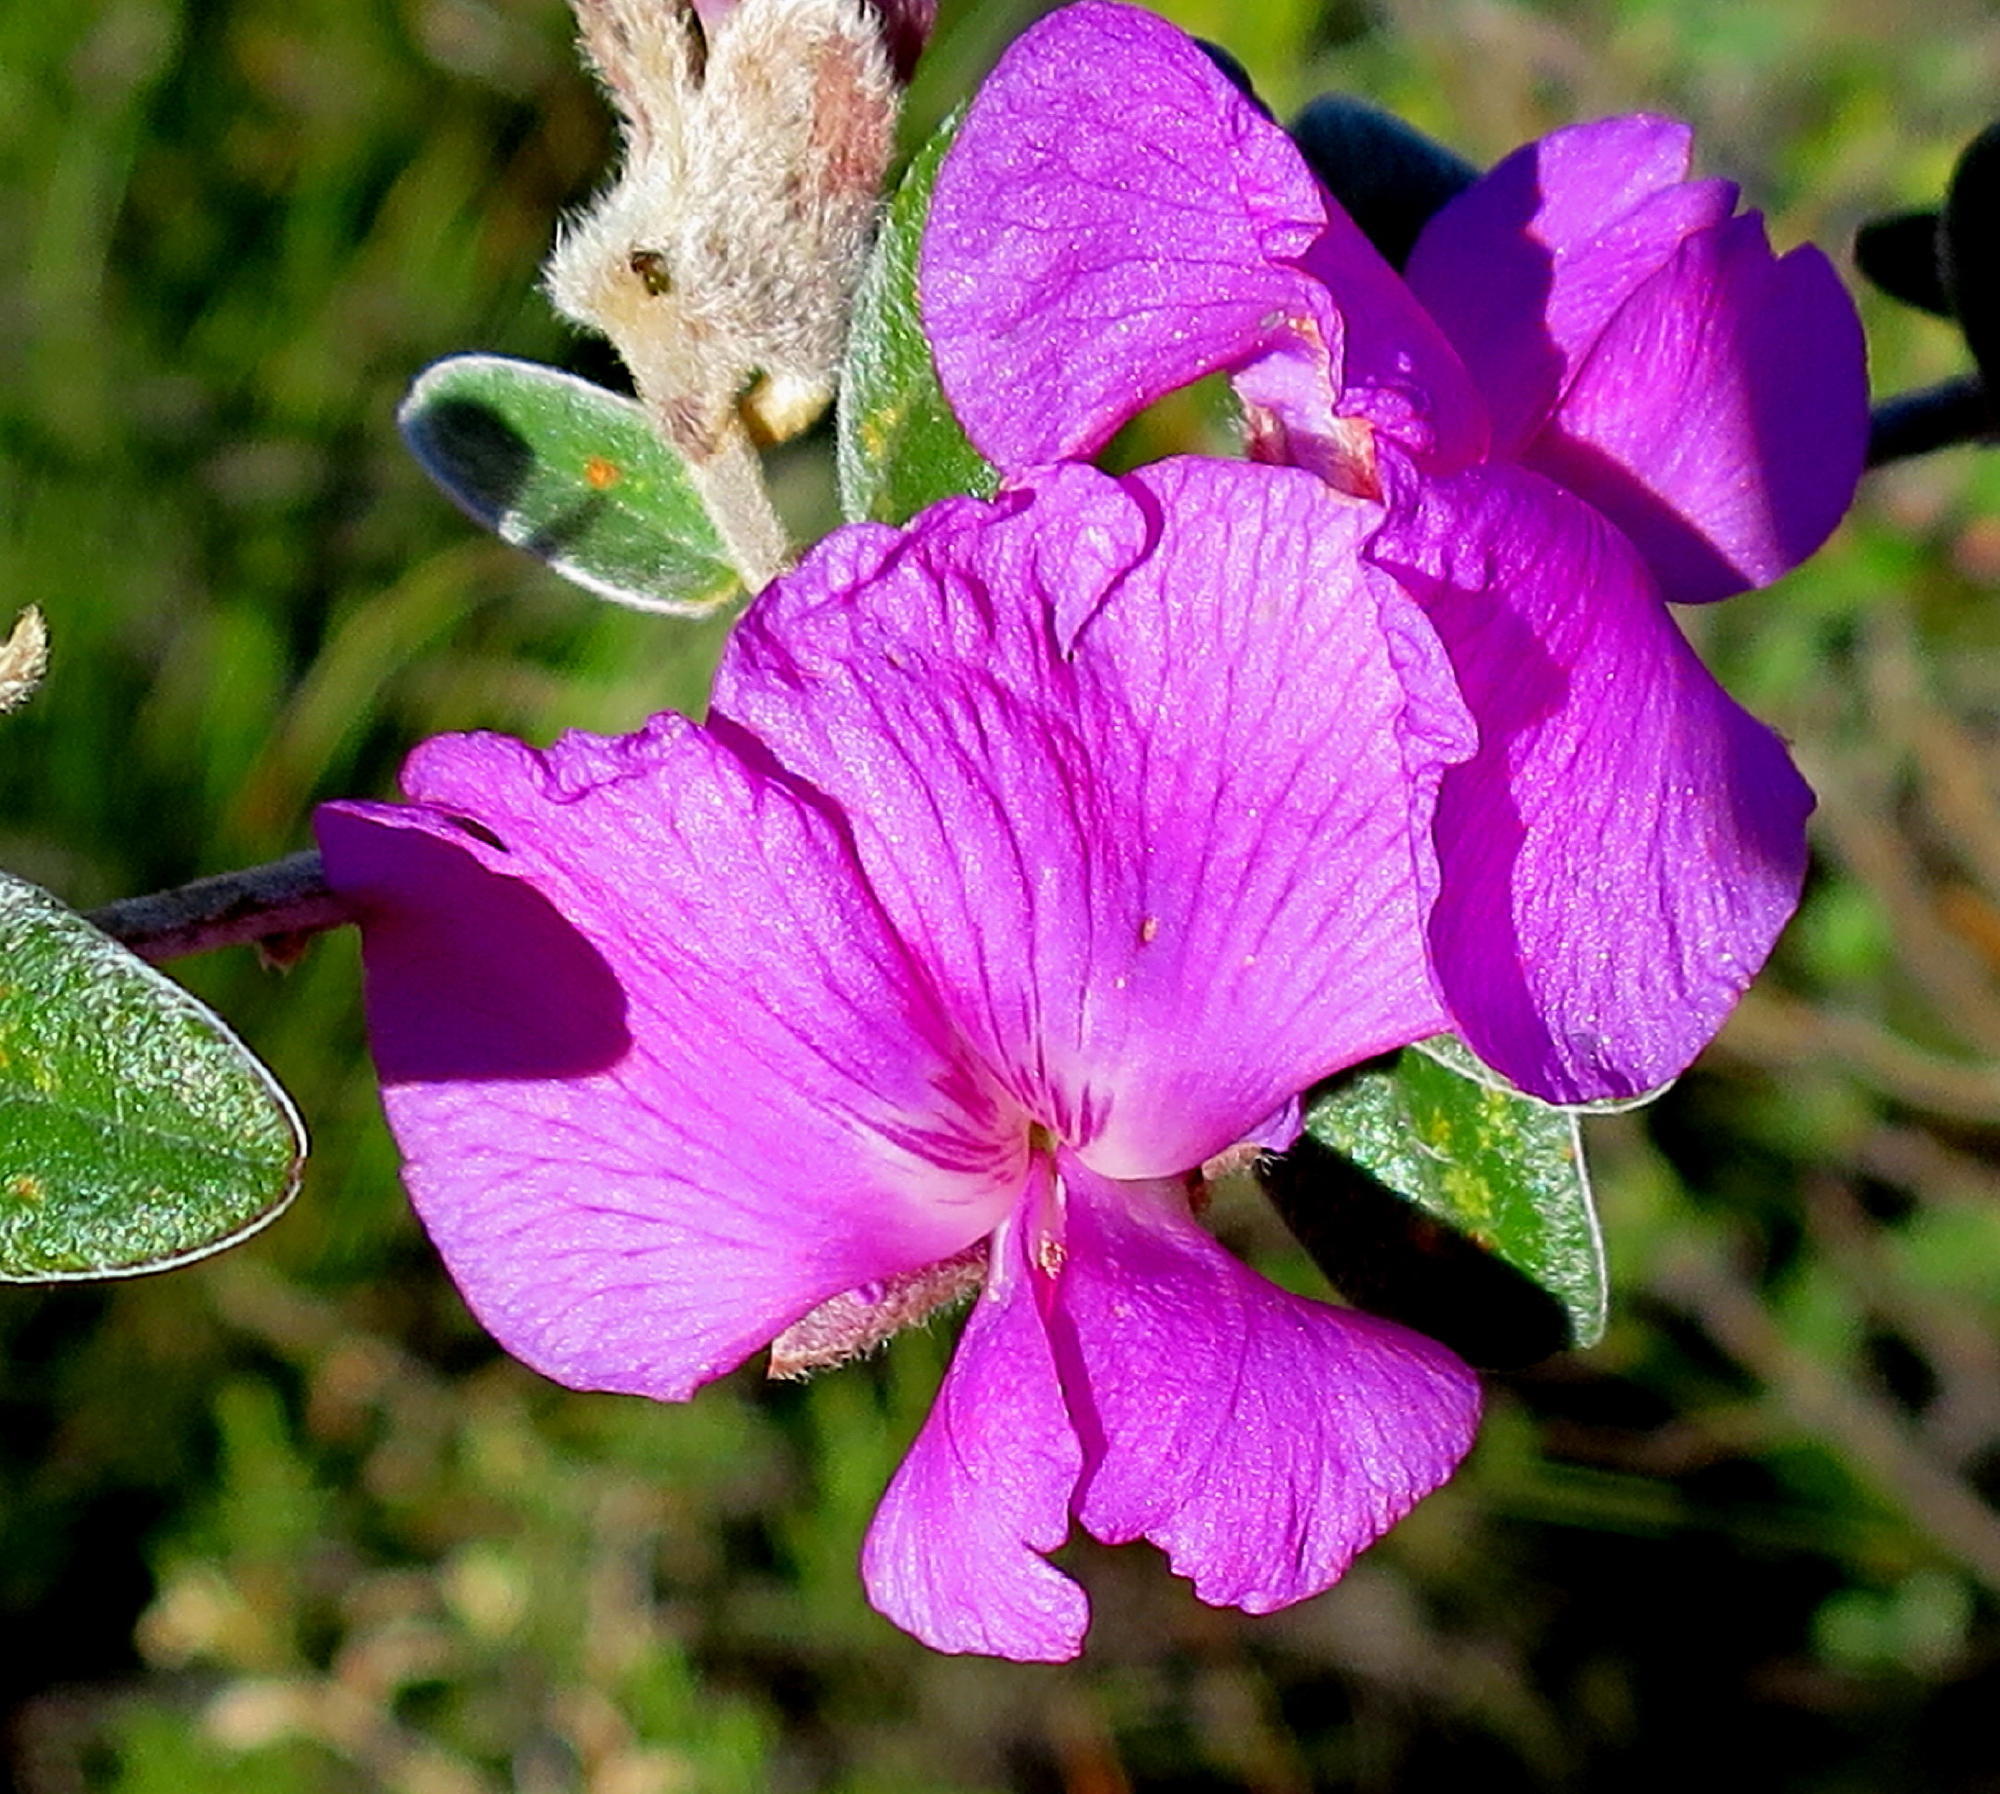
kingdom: Plantae
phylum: Tracheophyta
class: Magnoliopsida
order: Fabales
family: Fabaceae
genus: Podalyria
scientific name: Podalyria burchellii
